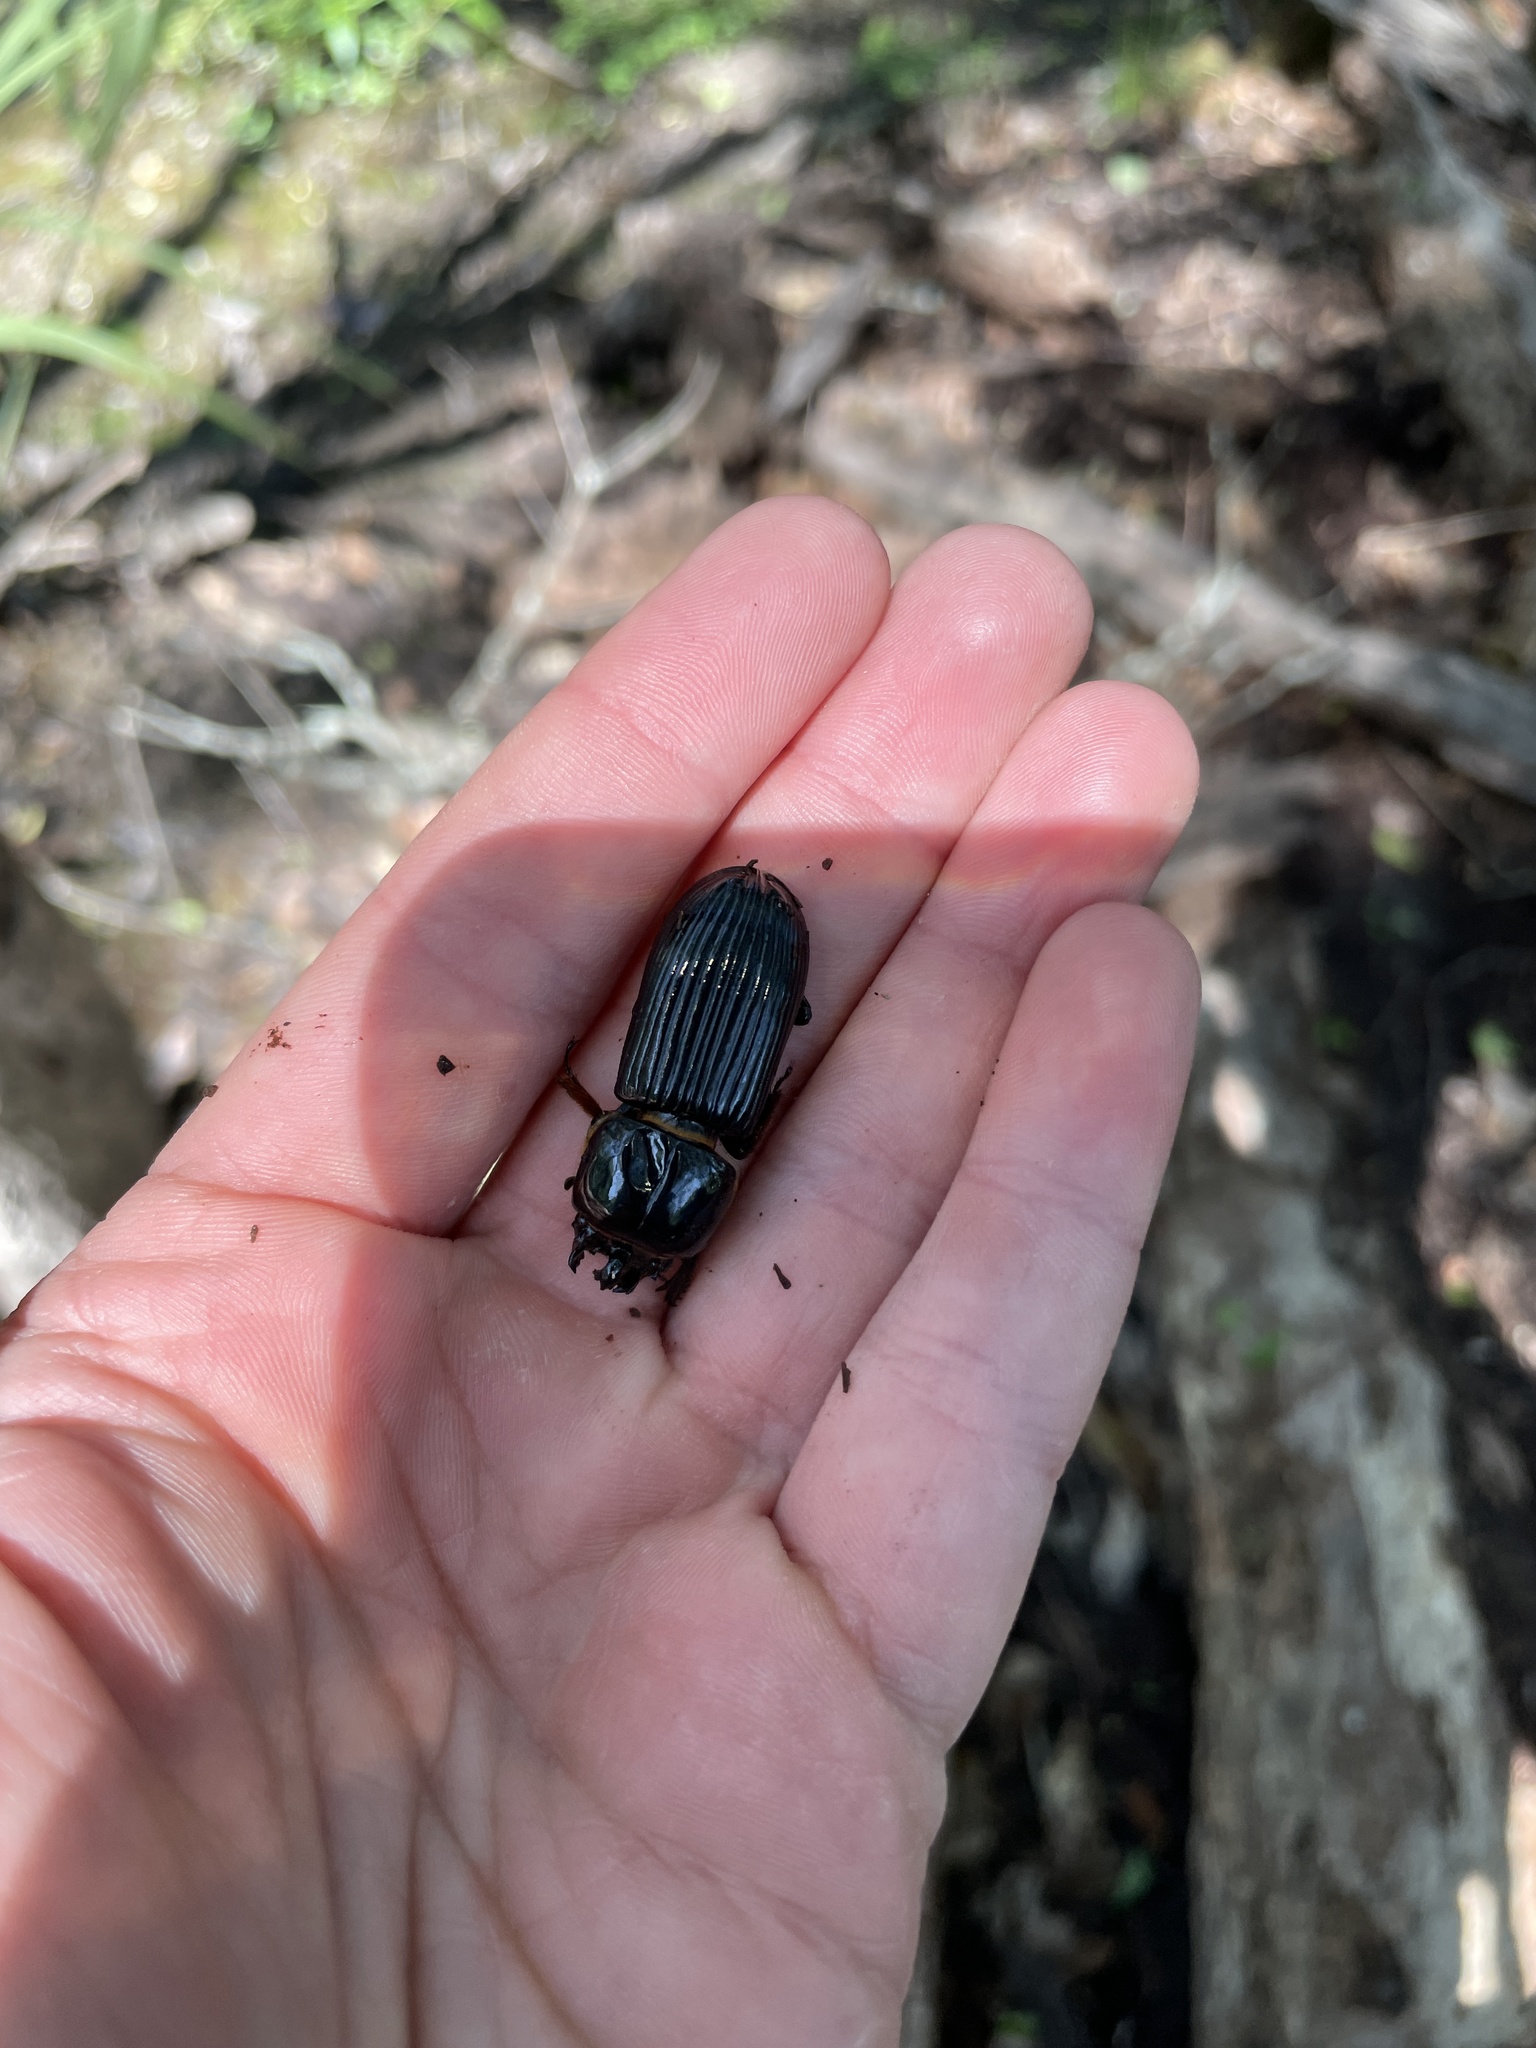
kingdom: Animalia
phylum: Arthropoda
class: Insecta
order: Coleoptera
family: Passalidae
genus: Odontotaenius
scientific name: Odontotaenius disjunctus
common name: Patent leather beetle
